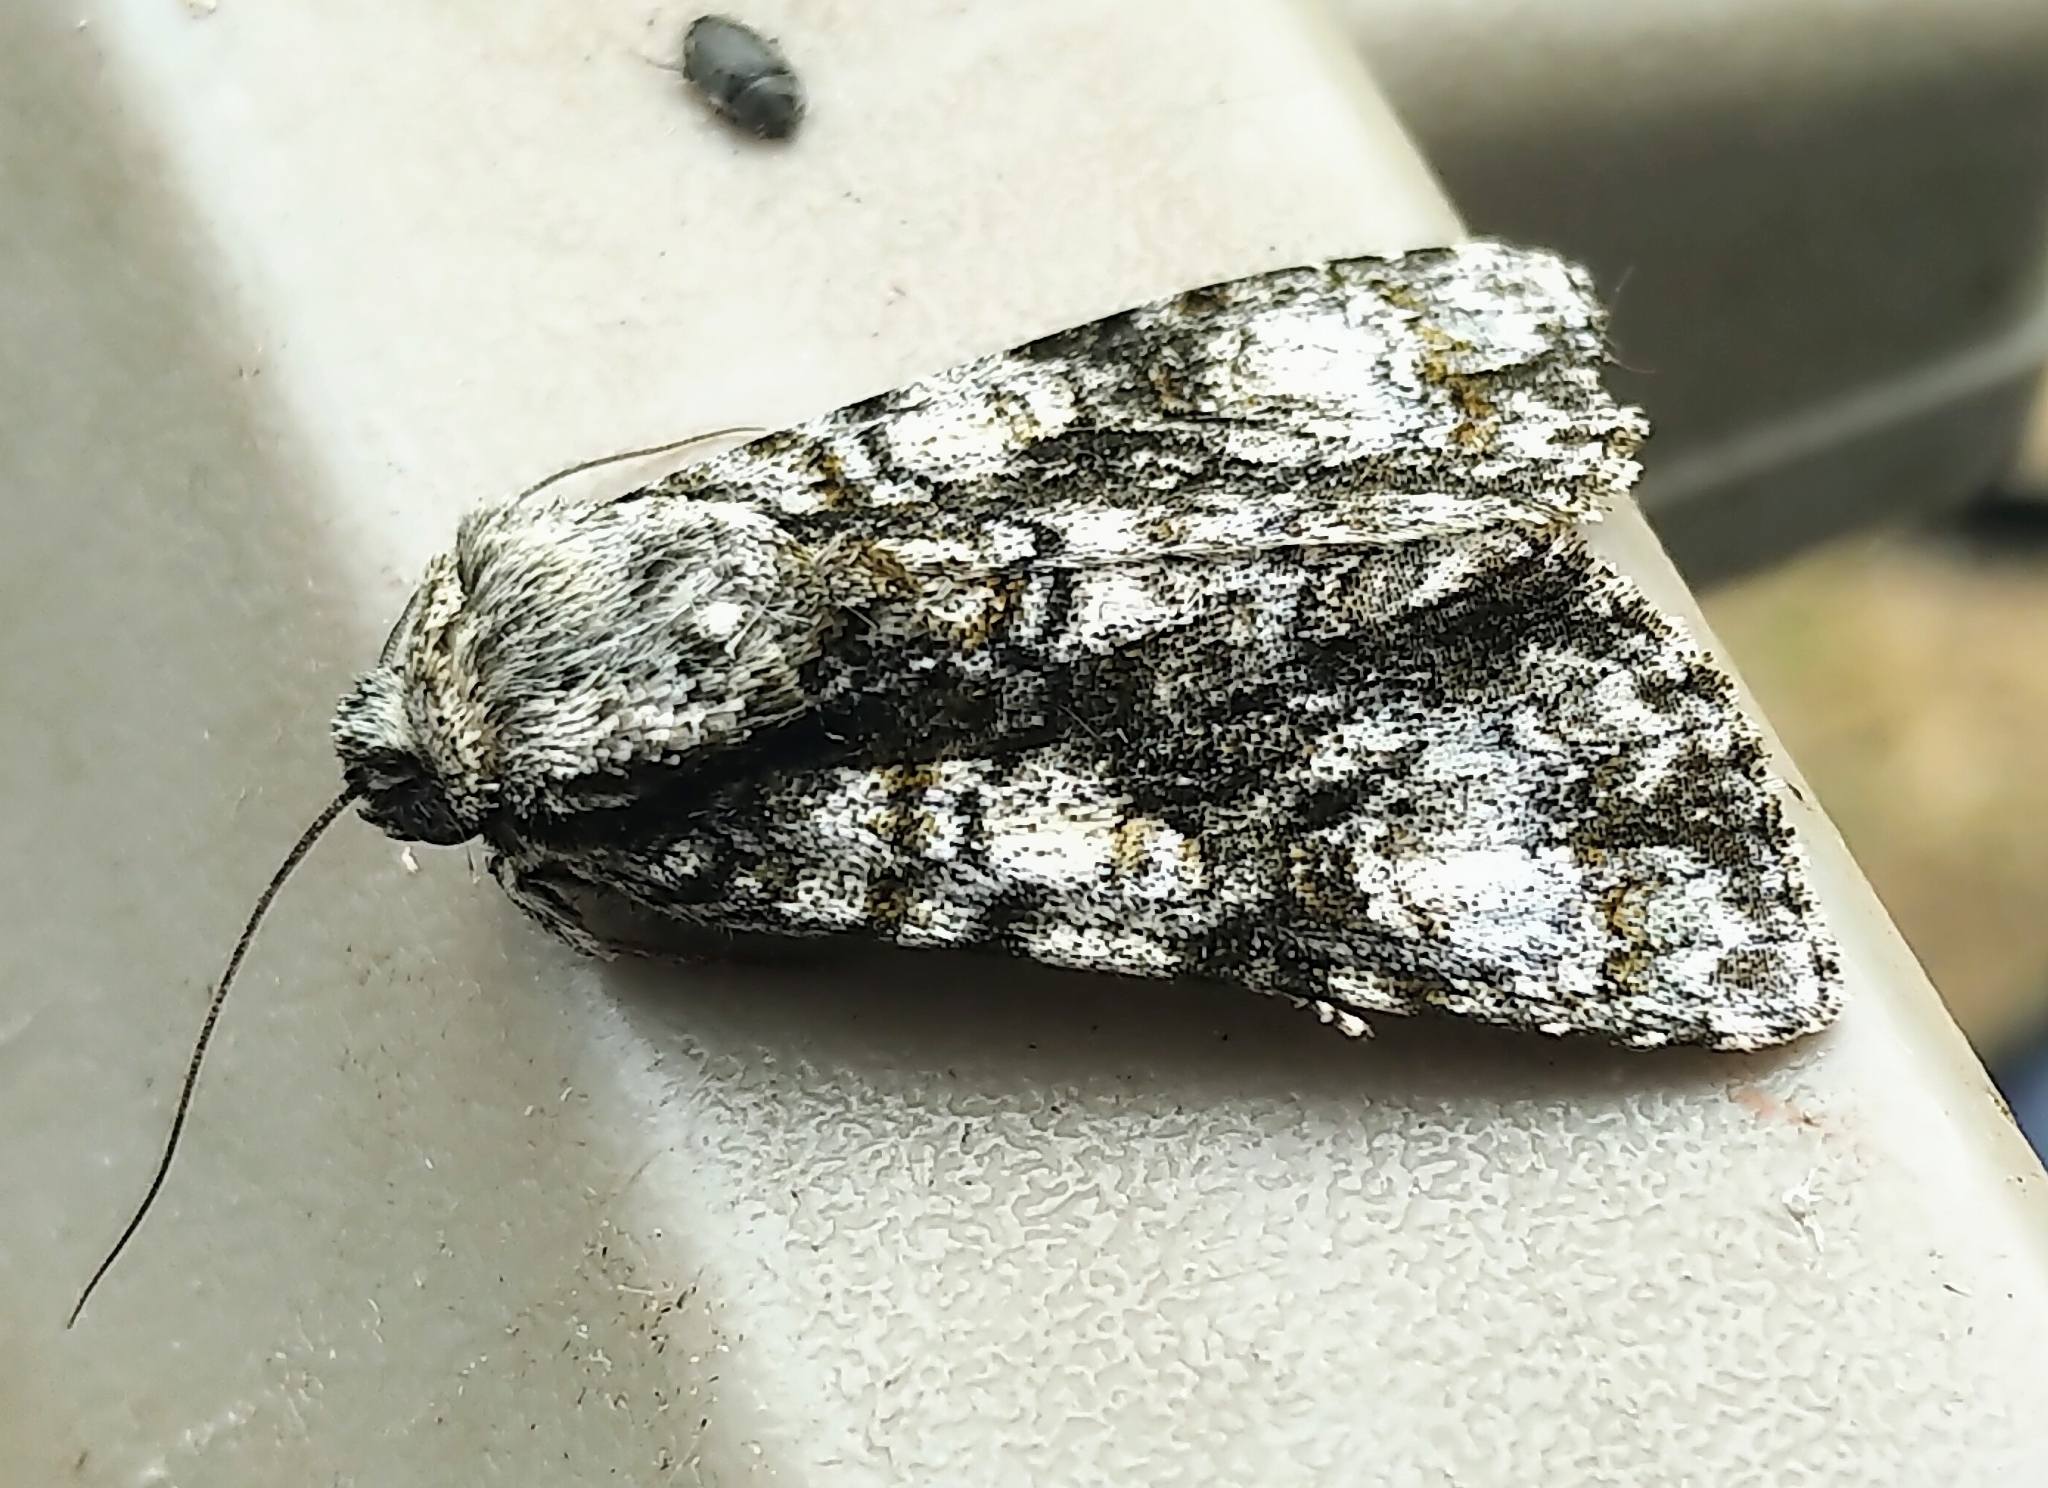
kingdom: Animalia
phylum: Arthropoda
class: Insecta
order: Lepidoptera
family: Noctuidae
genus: Acronicta
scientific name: Acronicta superans
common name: Splendid dagger
